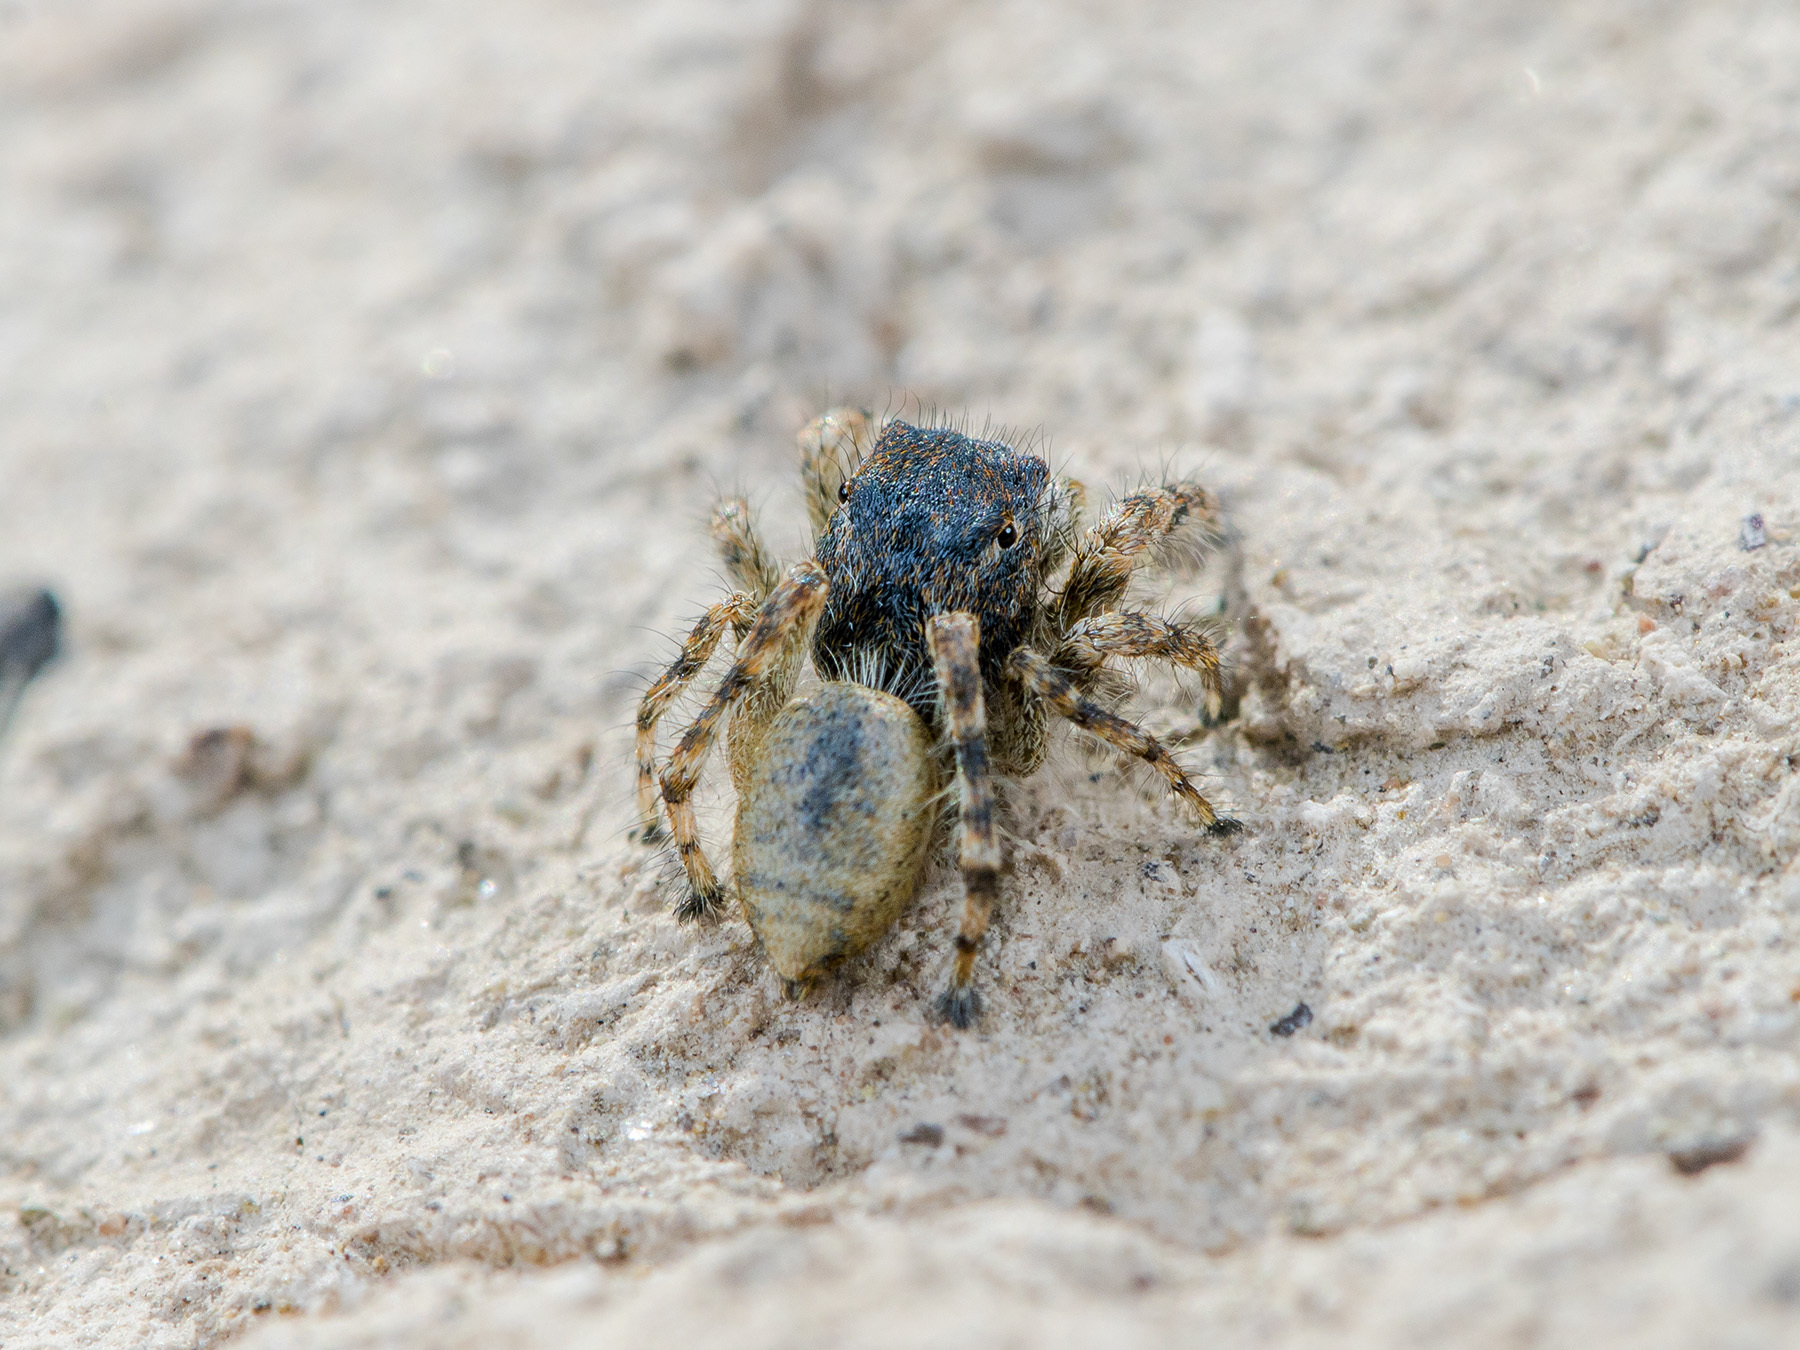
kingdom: Animalia
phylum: Arthropoda
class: Arachnida
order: Araneae
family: Salticidae
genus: Yllenus
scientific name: Yllenus zyuzini
